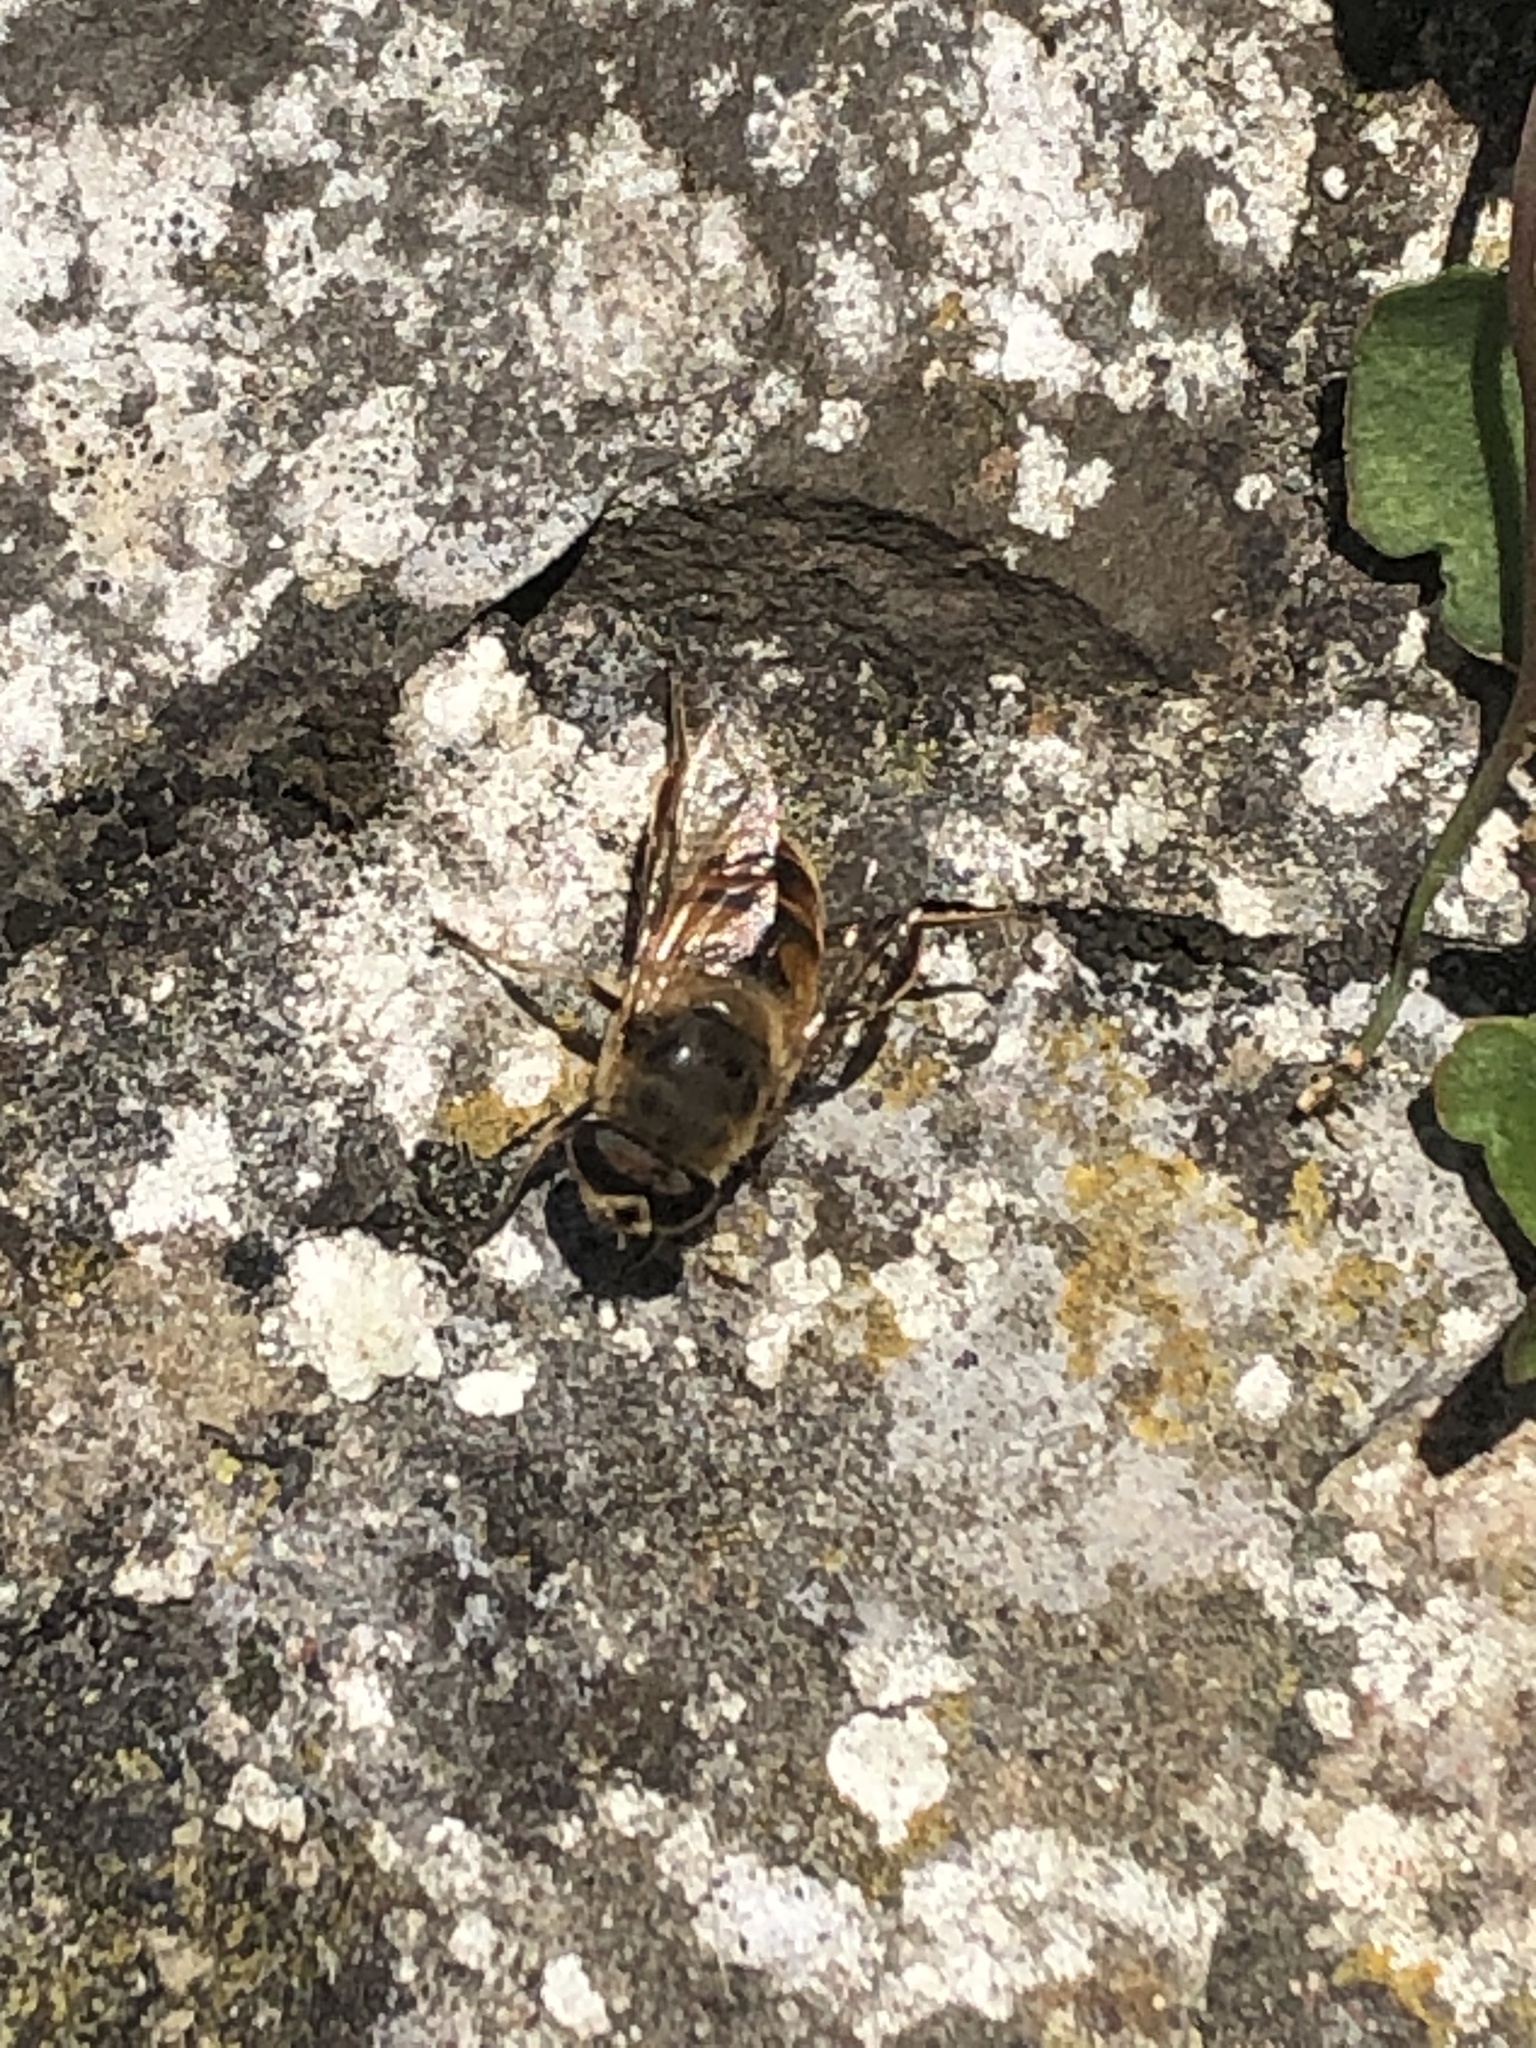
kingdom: Animalia
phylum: Arthropoda
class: Insecta
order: Diptera
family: Syrphidae
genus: Eristalis
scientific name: Eristalis tenax
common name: Drone fly
